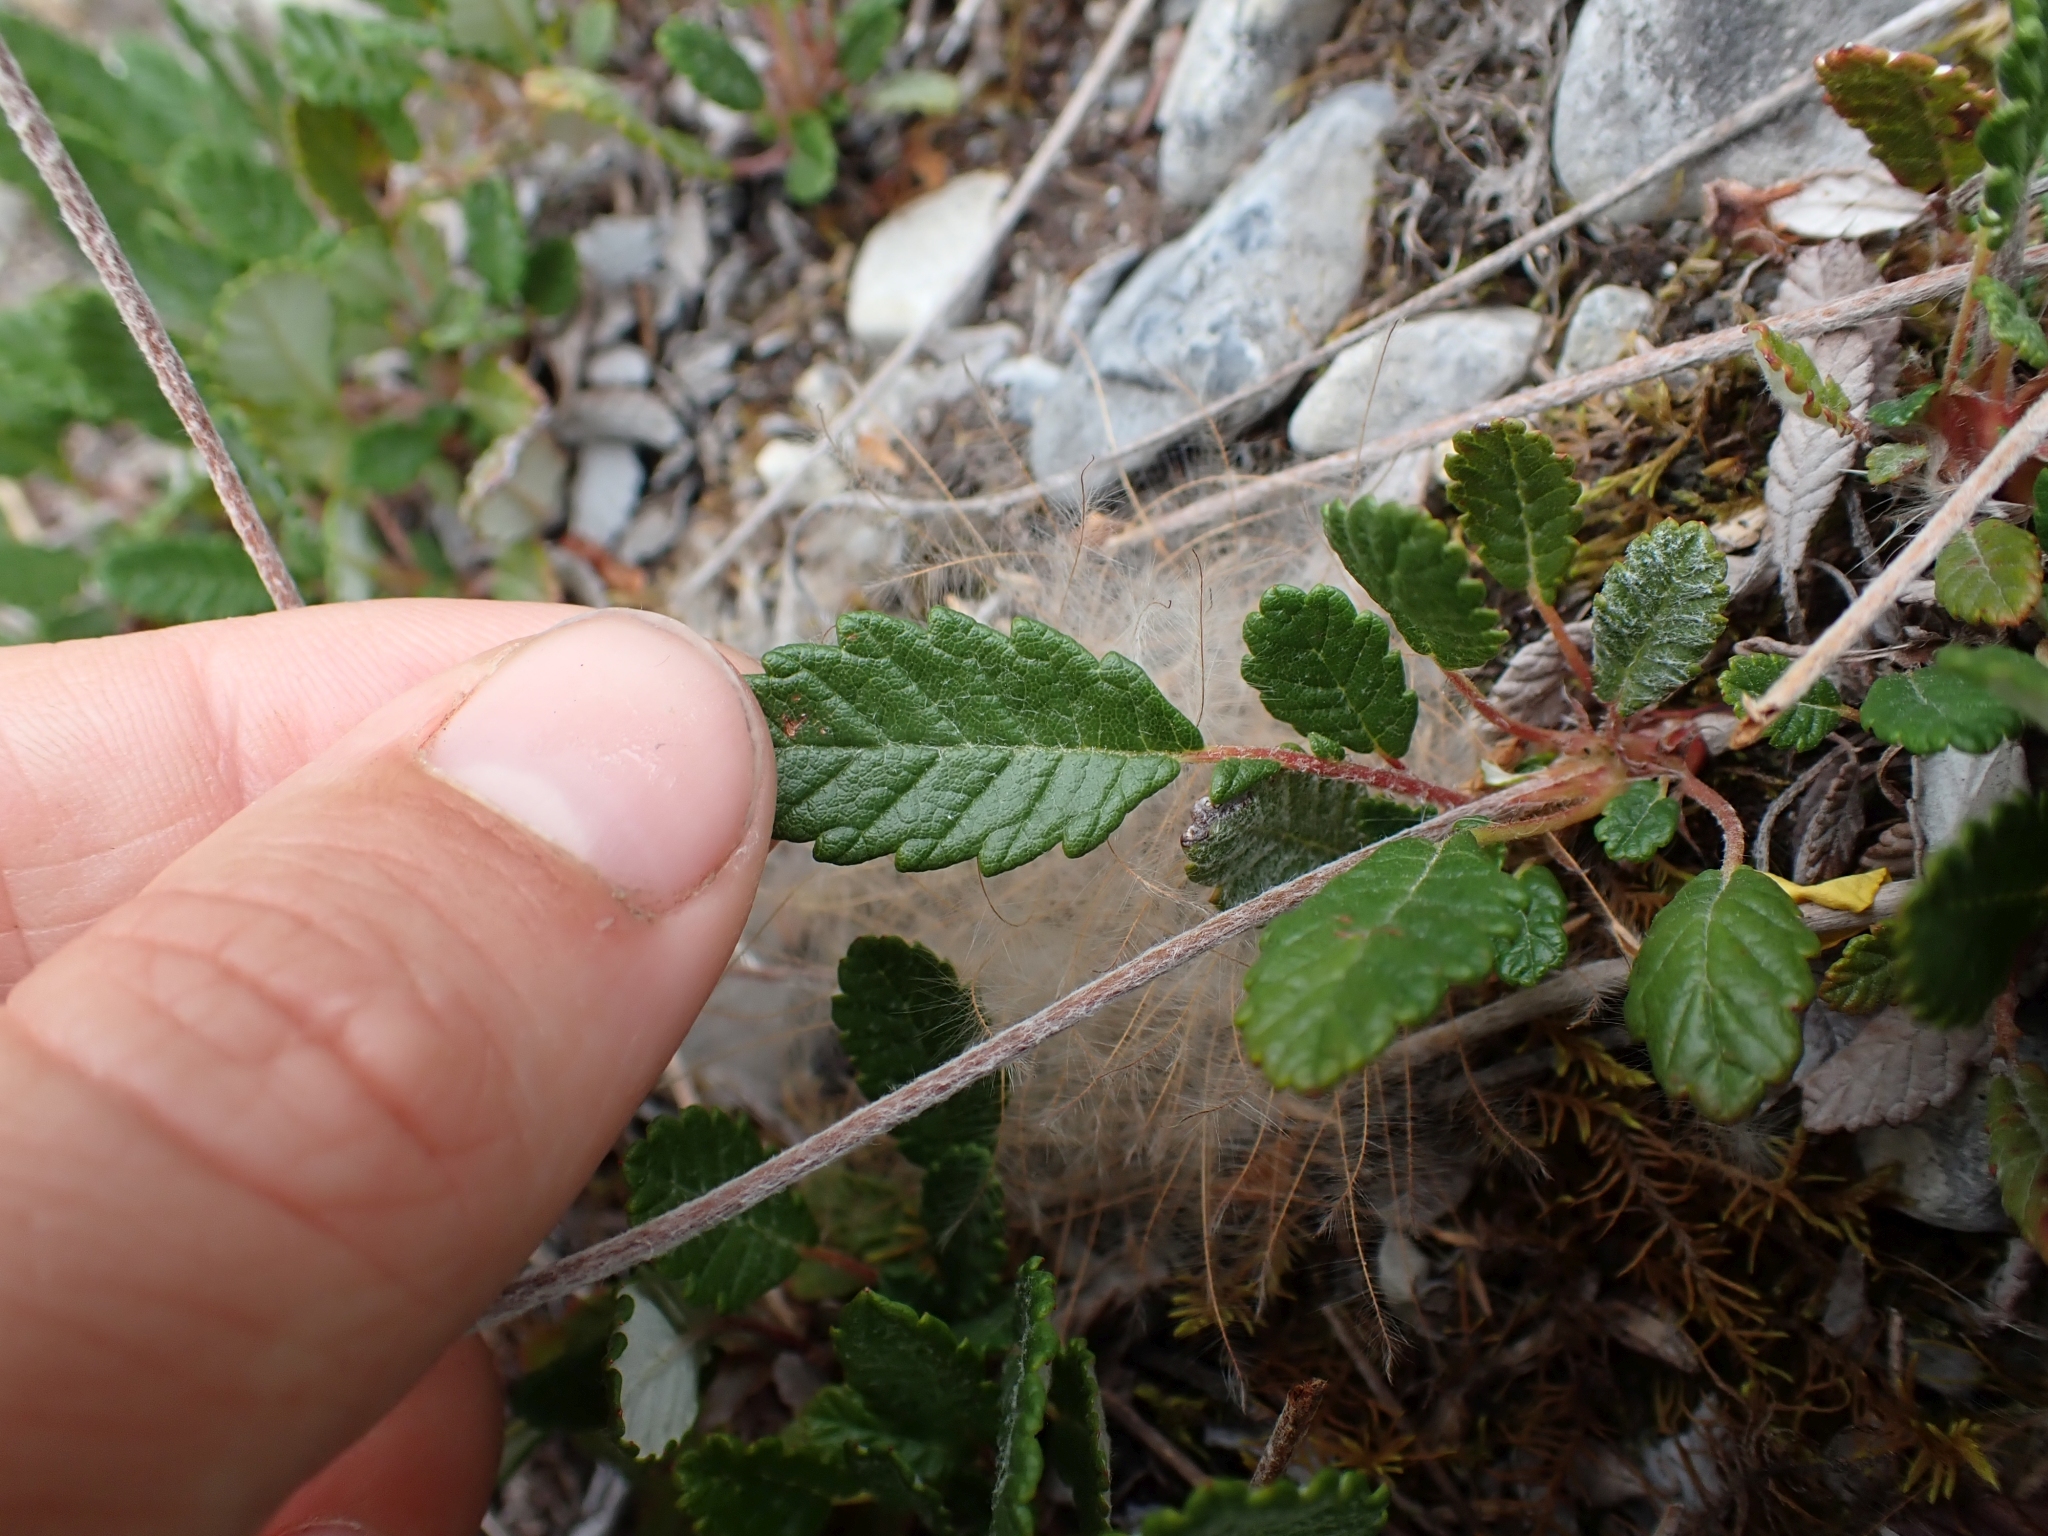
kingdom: Plantae
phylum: Tracheophyta
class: Magnoliopsida
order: Rosales
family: Rosaceae
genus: Dryas
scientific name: Dryas drummondii
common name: Drummond's dryad
